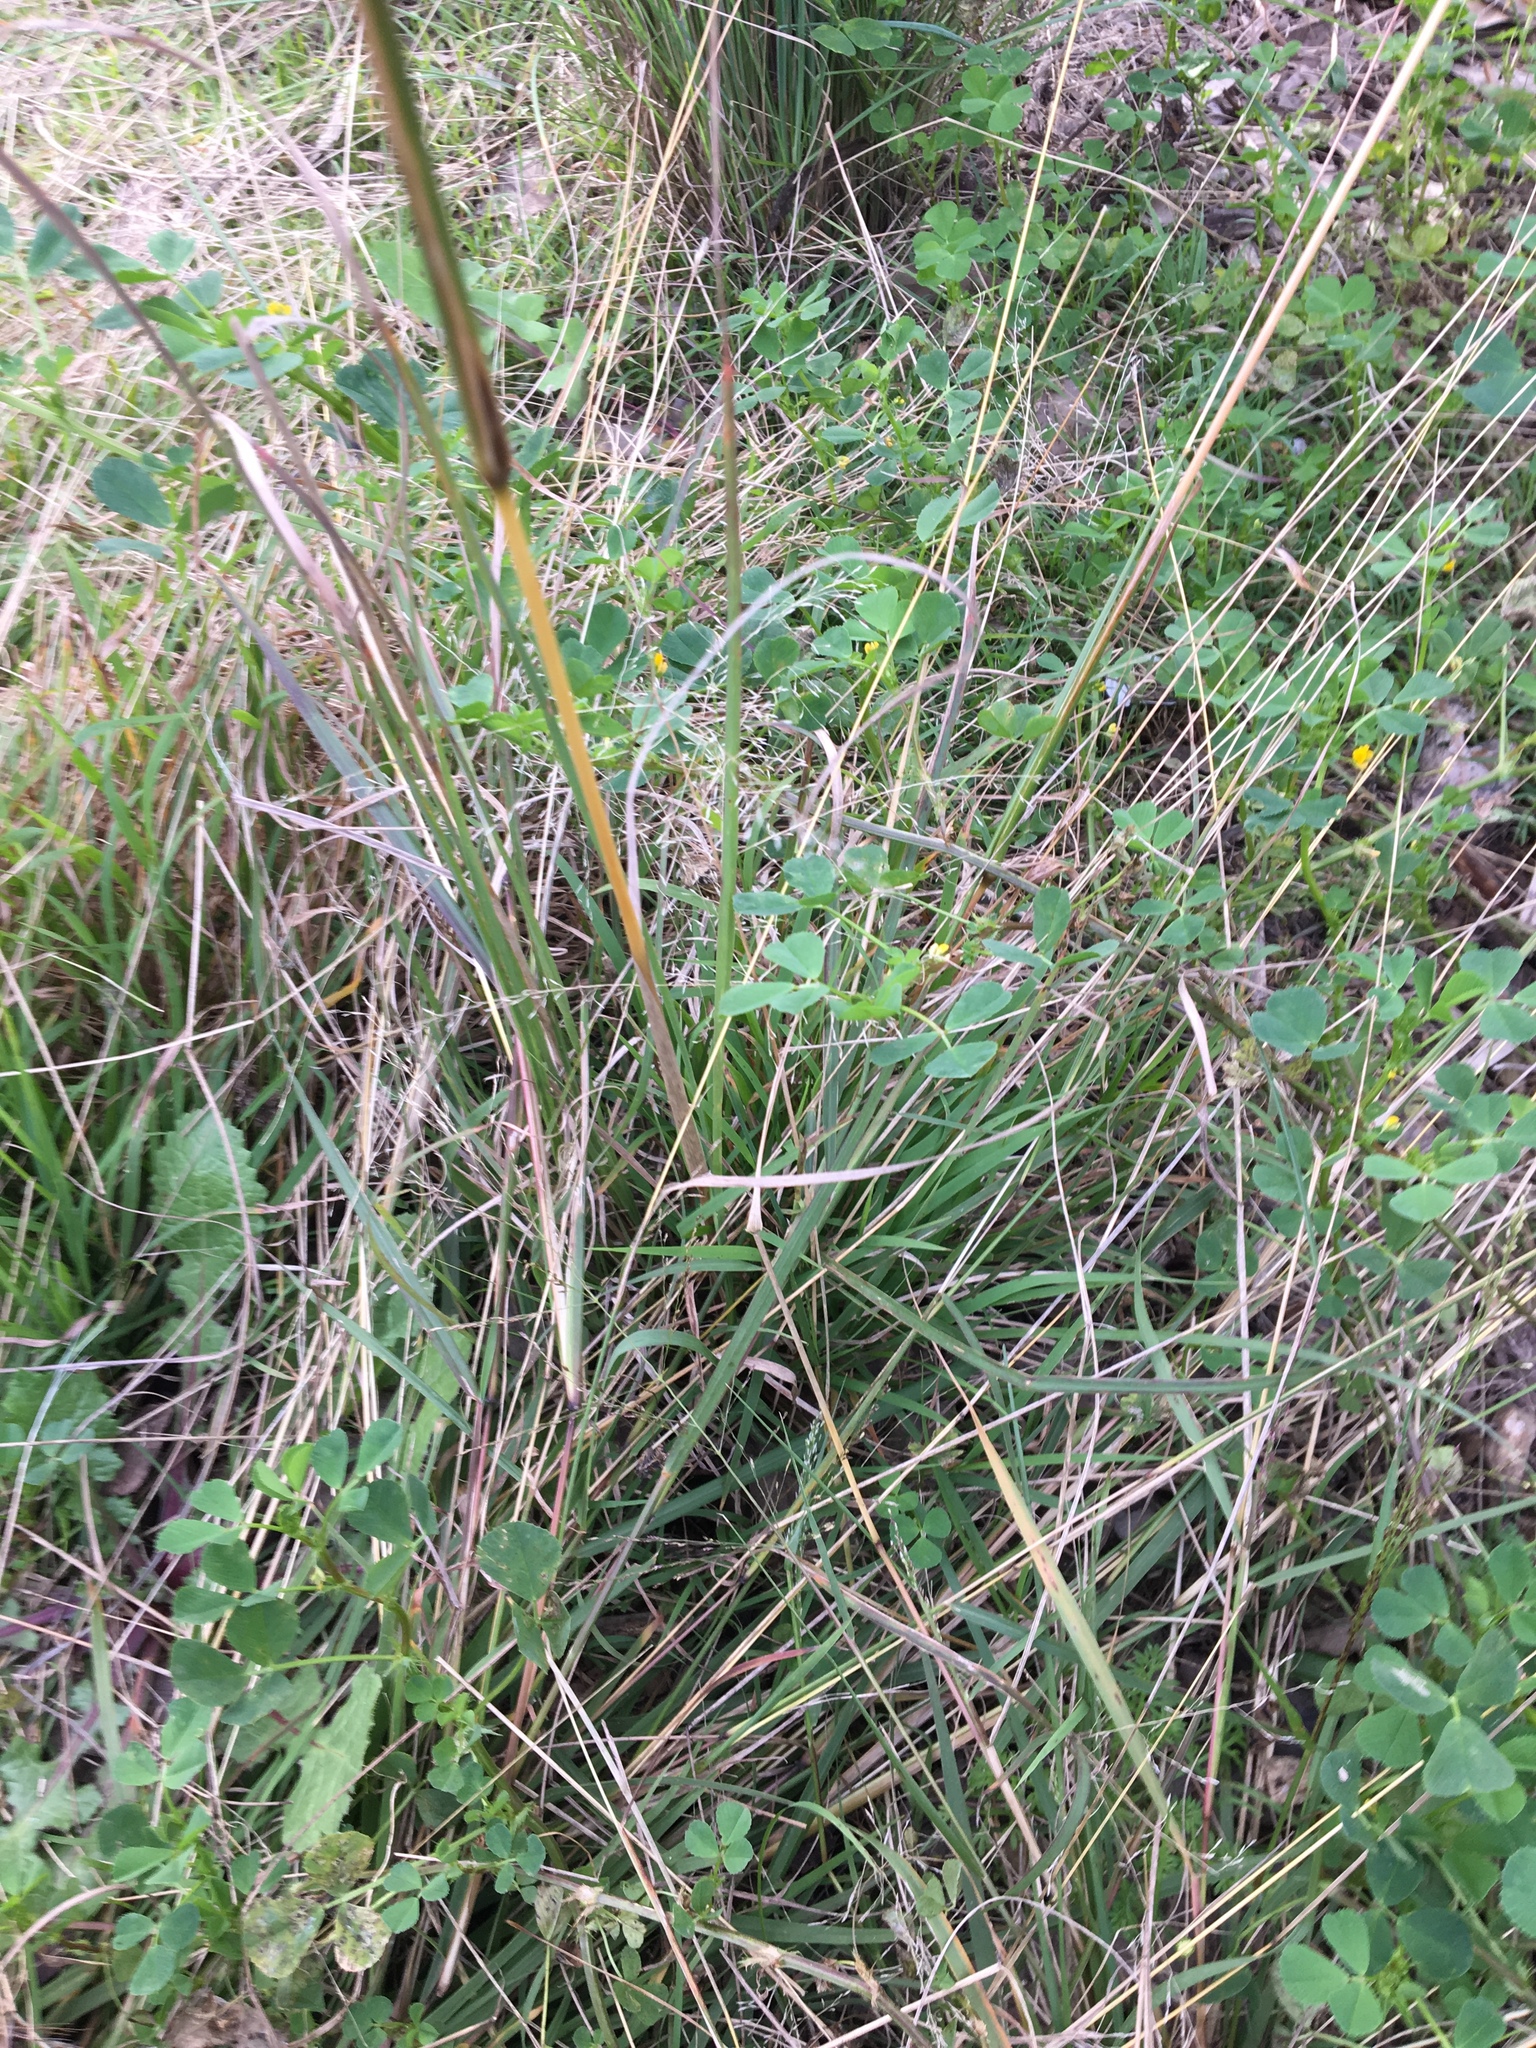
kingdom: Plantae
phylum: Tracheophyta
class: Liliopsida
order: Poales
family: Poaceae
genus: Cymbopogon
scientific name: Cymbopogon refractus
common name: Barbwire grass
